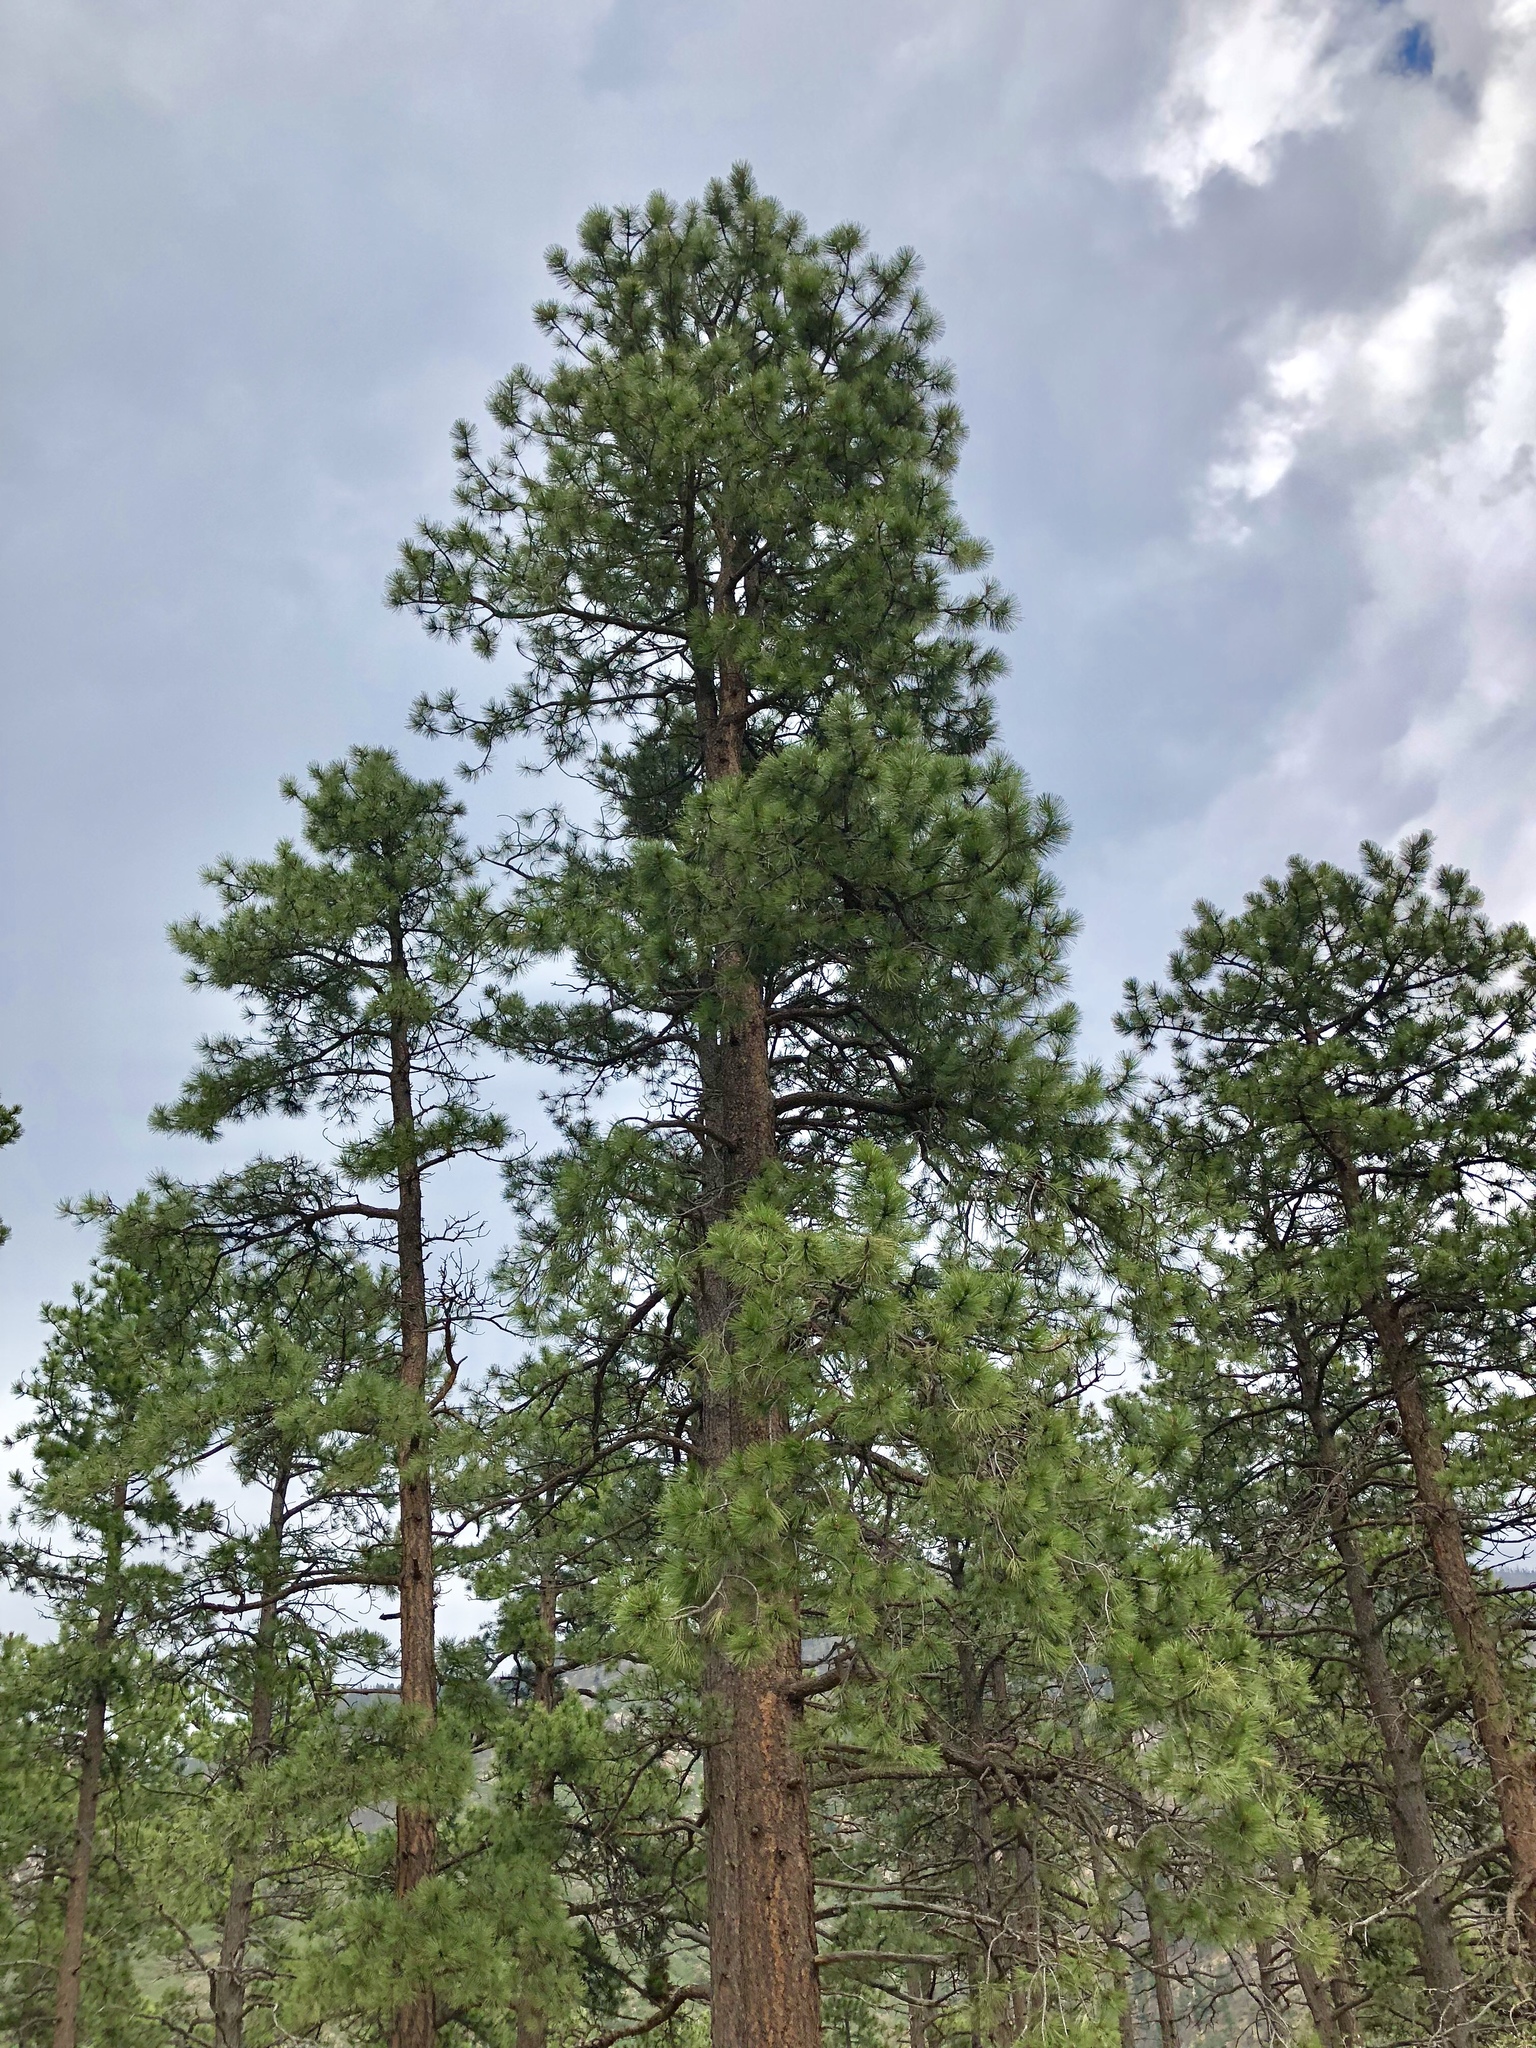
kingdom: Plantae
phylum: Tracheophyta
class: Pinopsida
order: Pinales
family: Pinaceae
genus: Pinus
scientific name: Pinus ponderosa
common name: Western yellow-pine
